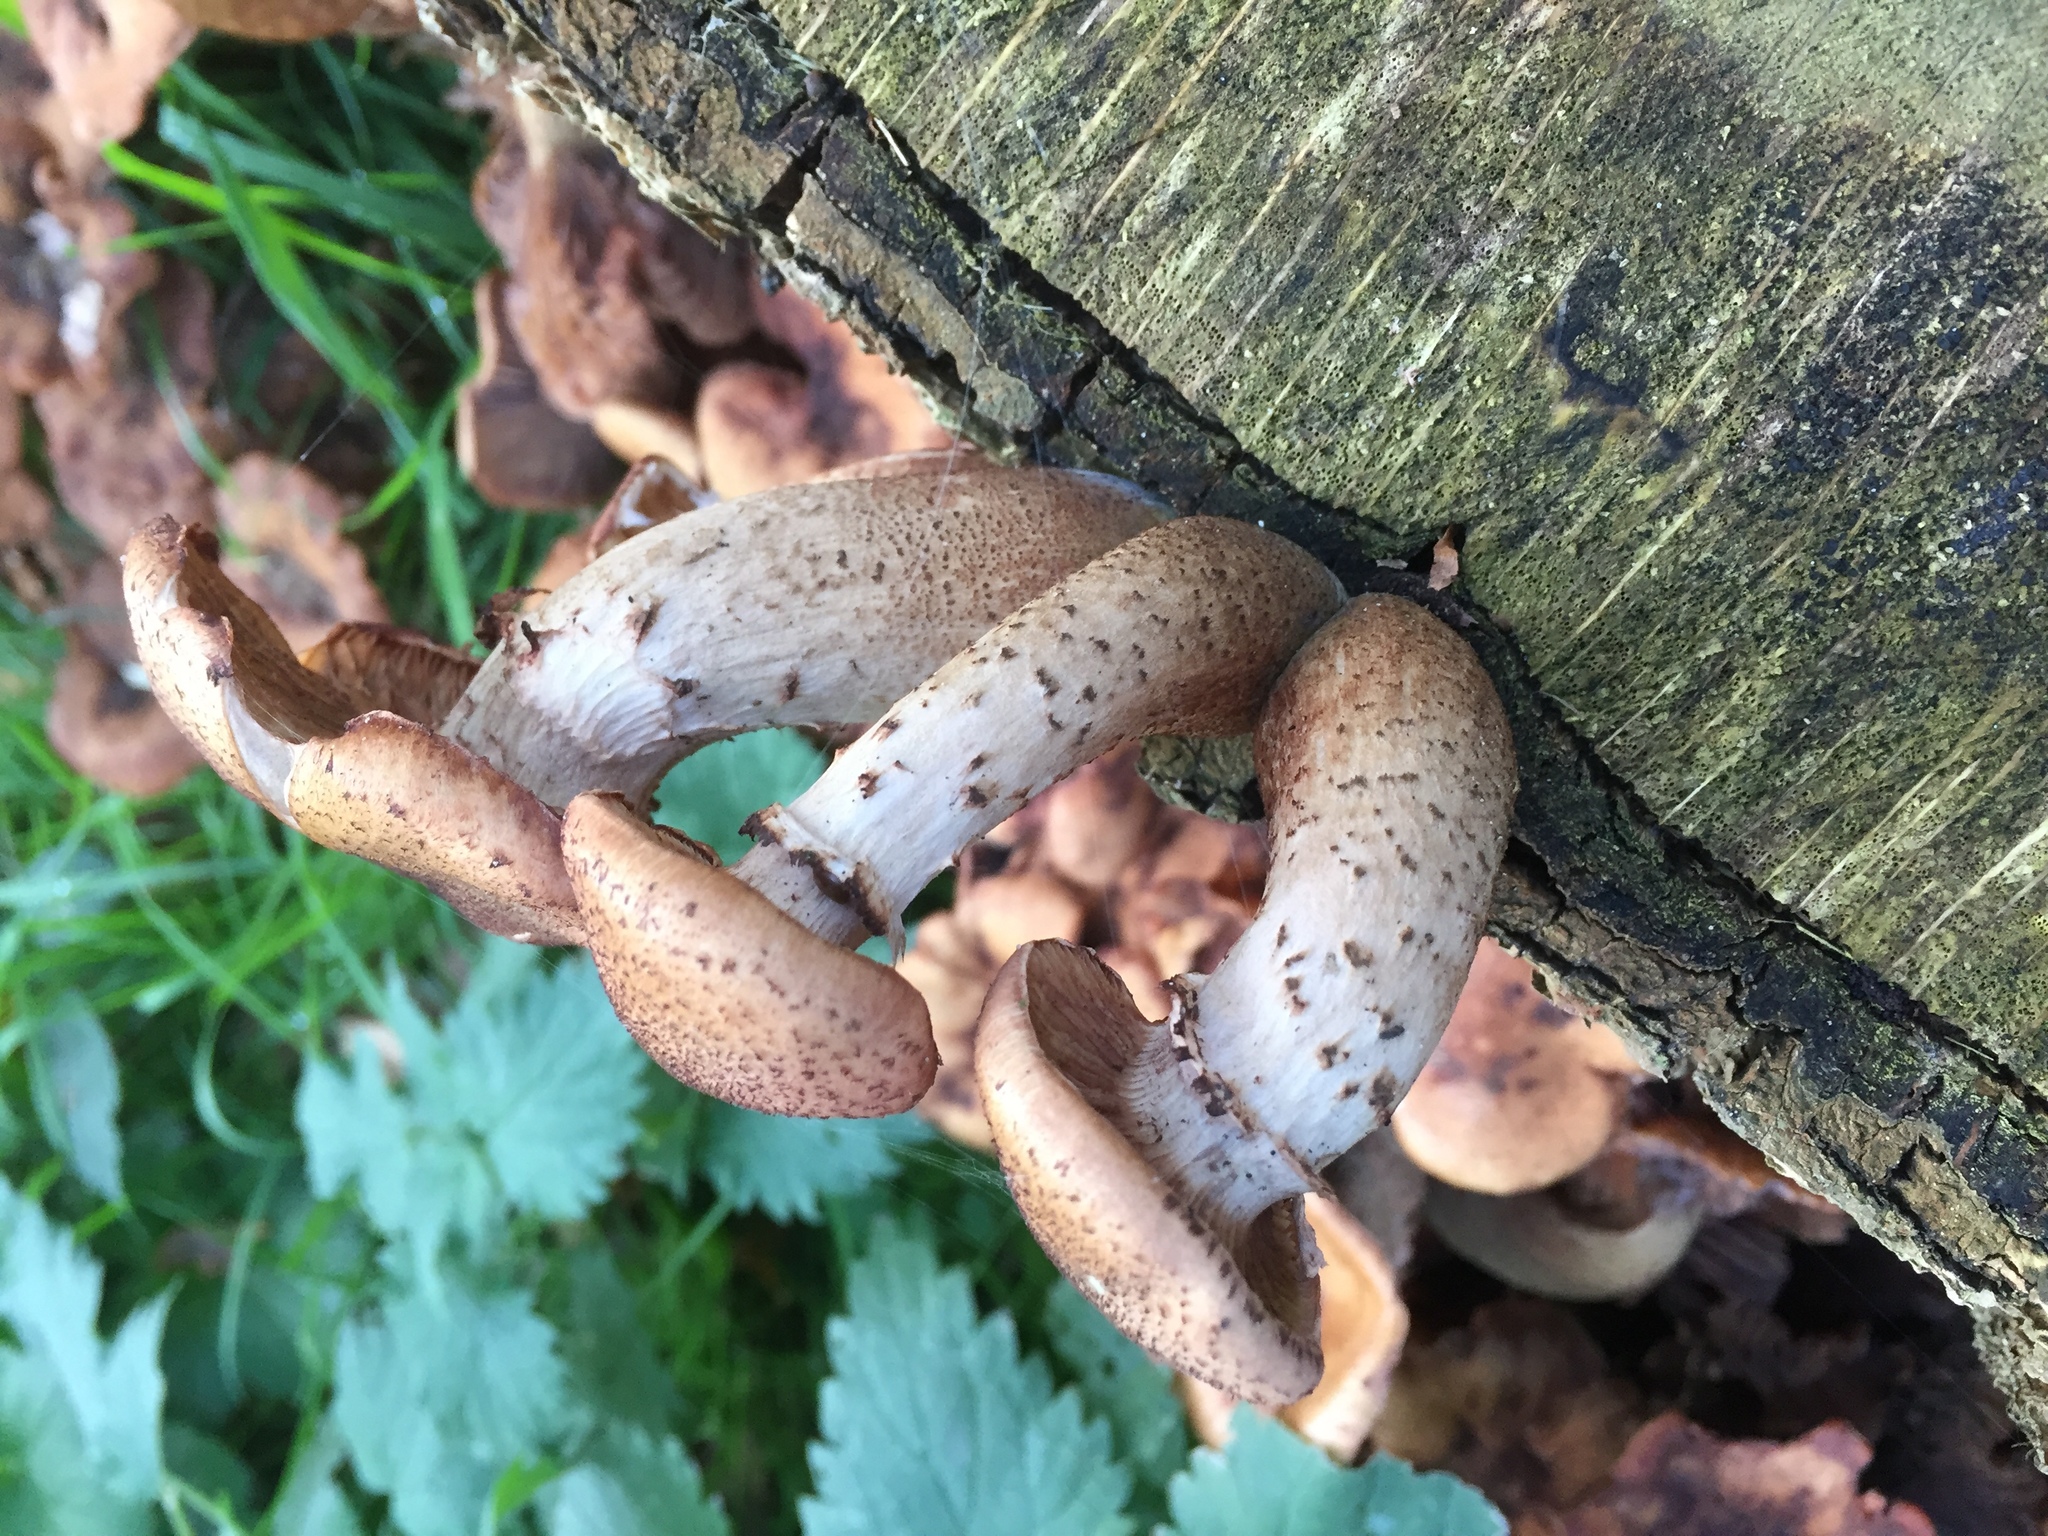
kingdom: Fungi
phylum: Basidiomycota
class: Agaricomycetes
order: Agaricales
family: Physalacriaceae
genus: Armillaria
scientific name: Armillaria mellea
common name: Honey fungus
